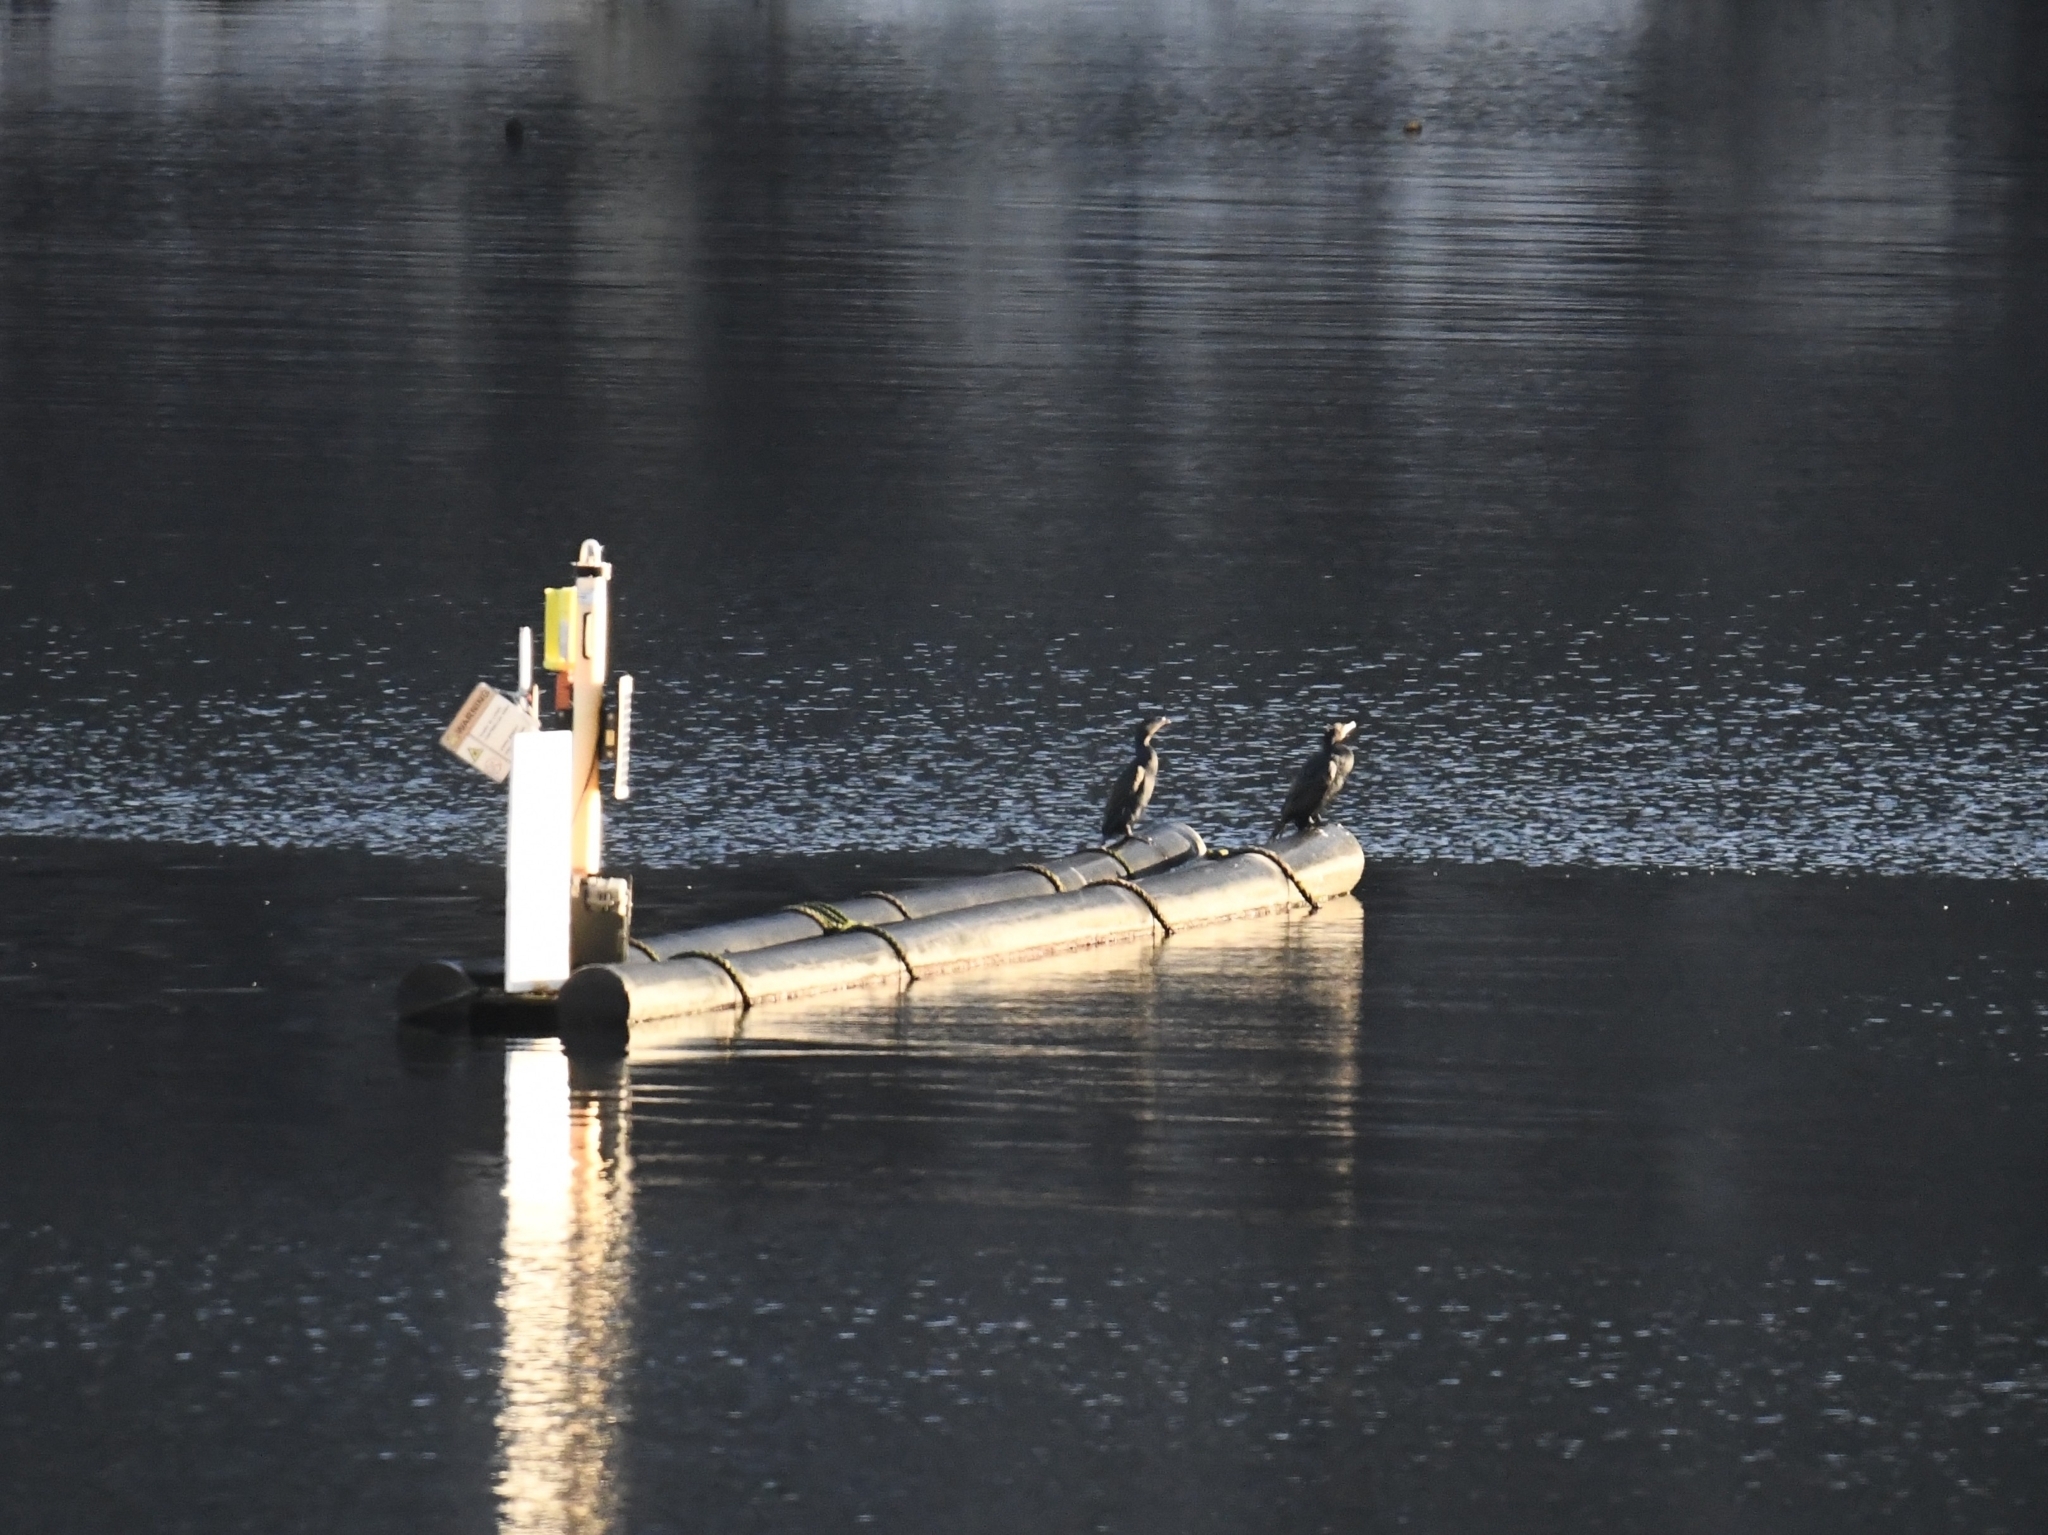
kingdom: Animalia
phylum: Chordata
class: Aves
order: Suliformes
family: Phalacrocoracidae
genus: Phalacrocorax
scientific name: Phalacrocorax carbo
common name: Great cormorant
